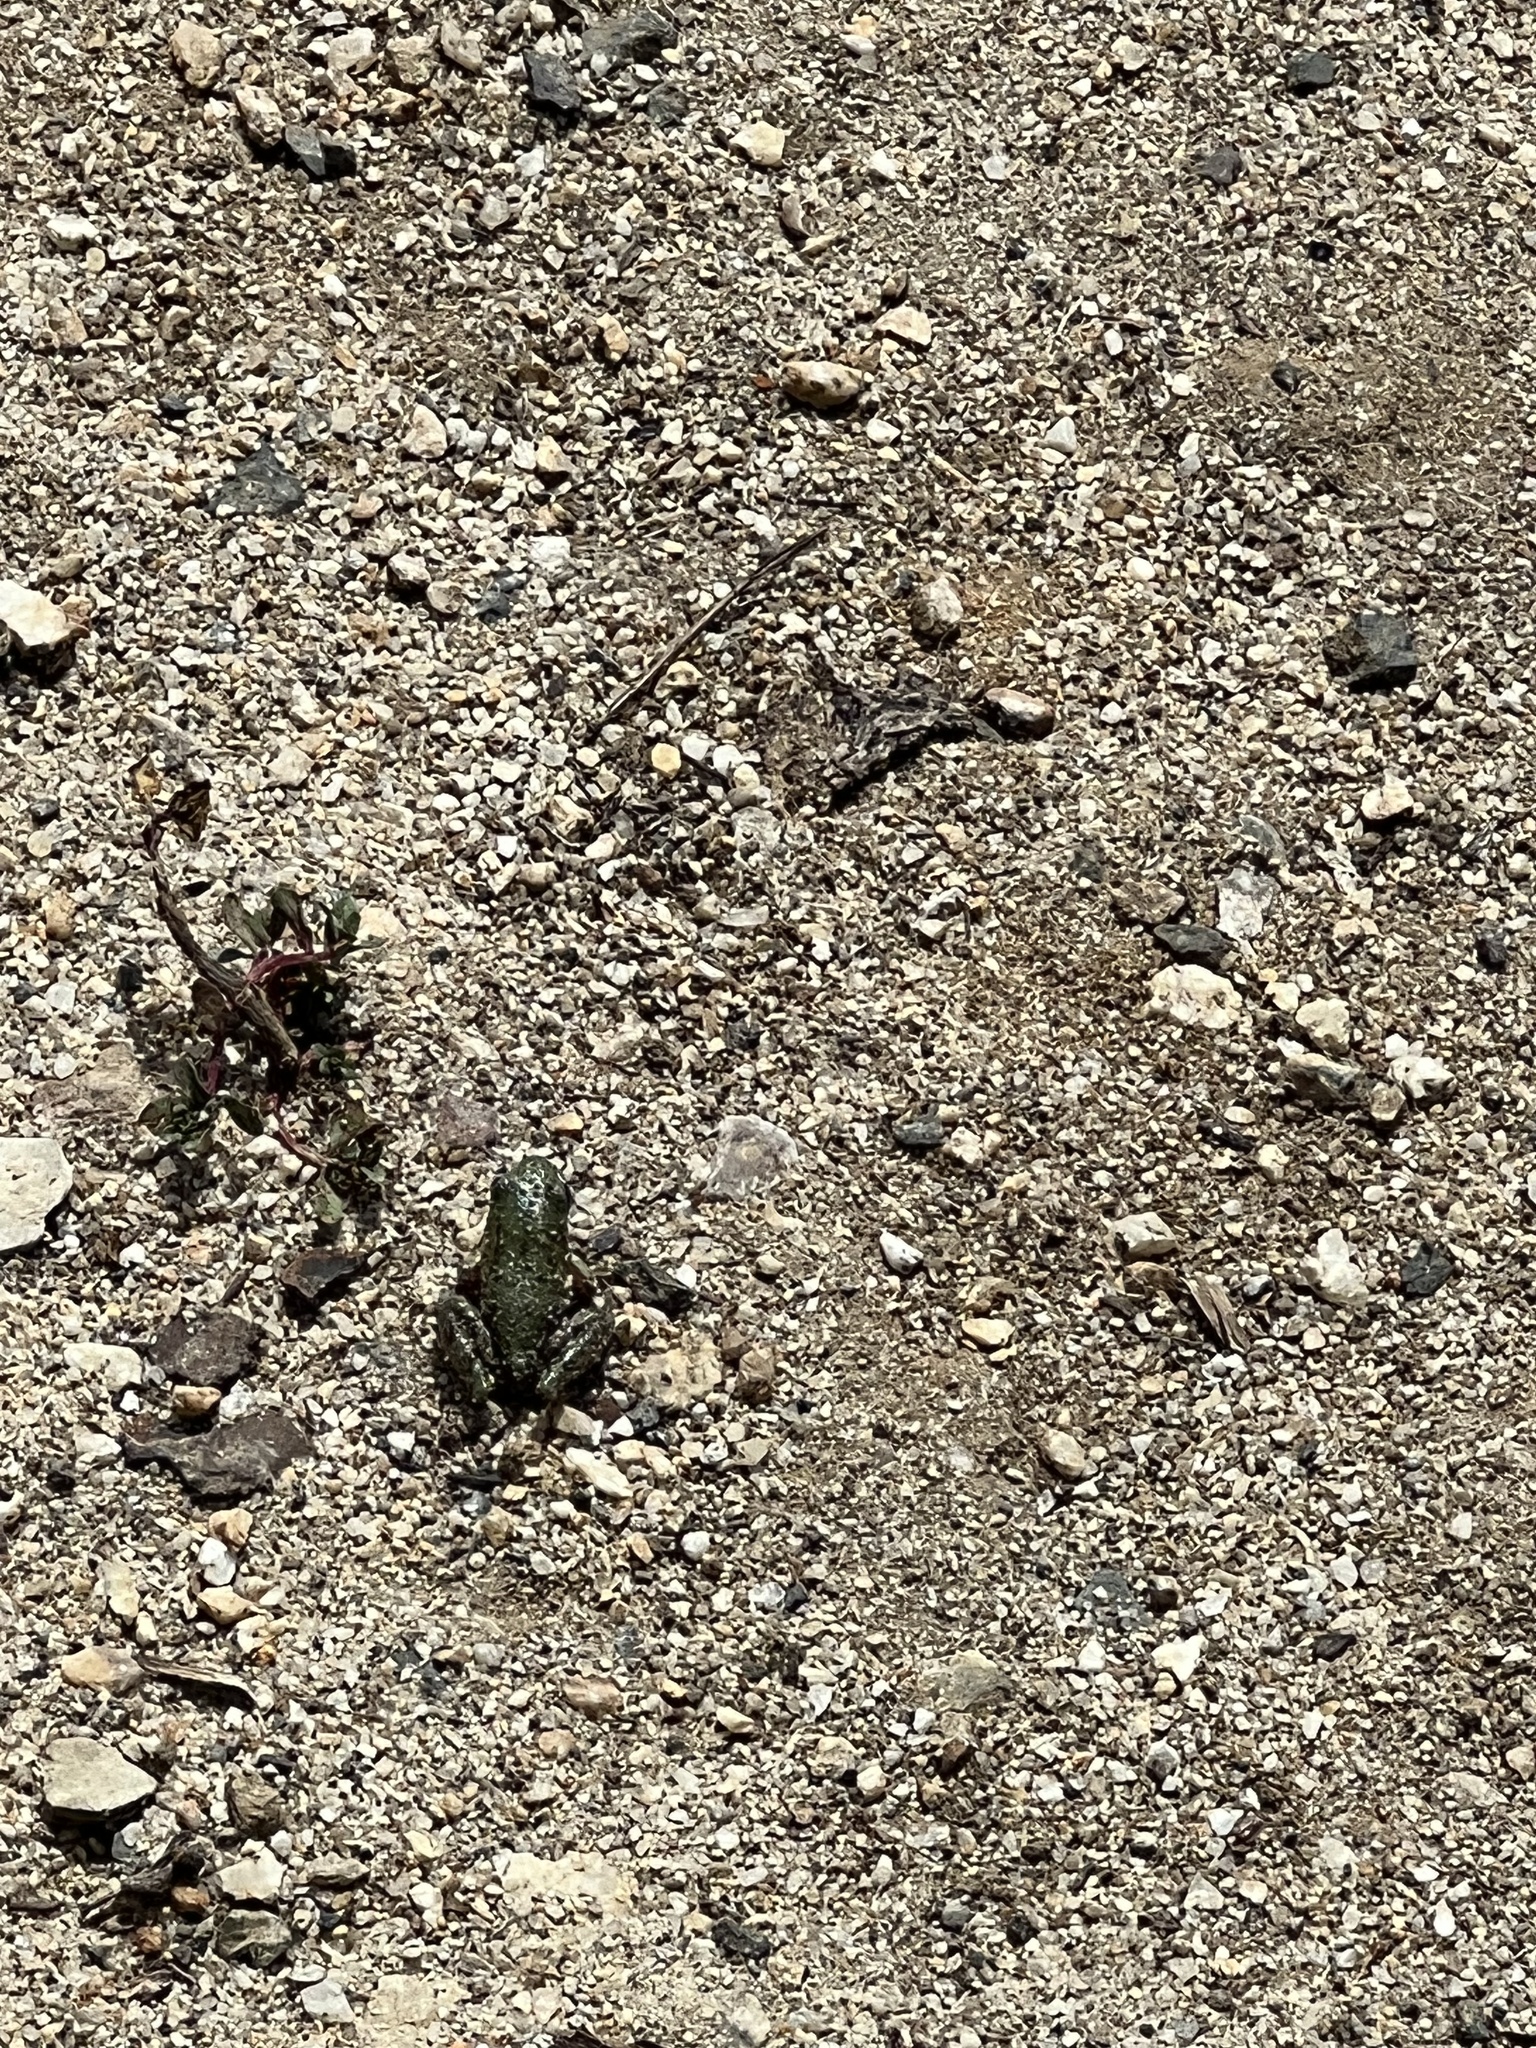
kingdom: Animalia
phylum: Chordata
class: Amphibia
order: Anura
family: Hylidae
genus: Pseudacris
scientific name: Pseudacris regilla
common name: Pacific chorus frog
